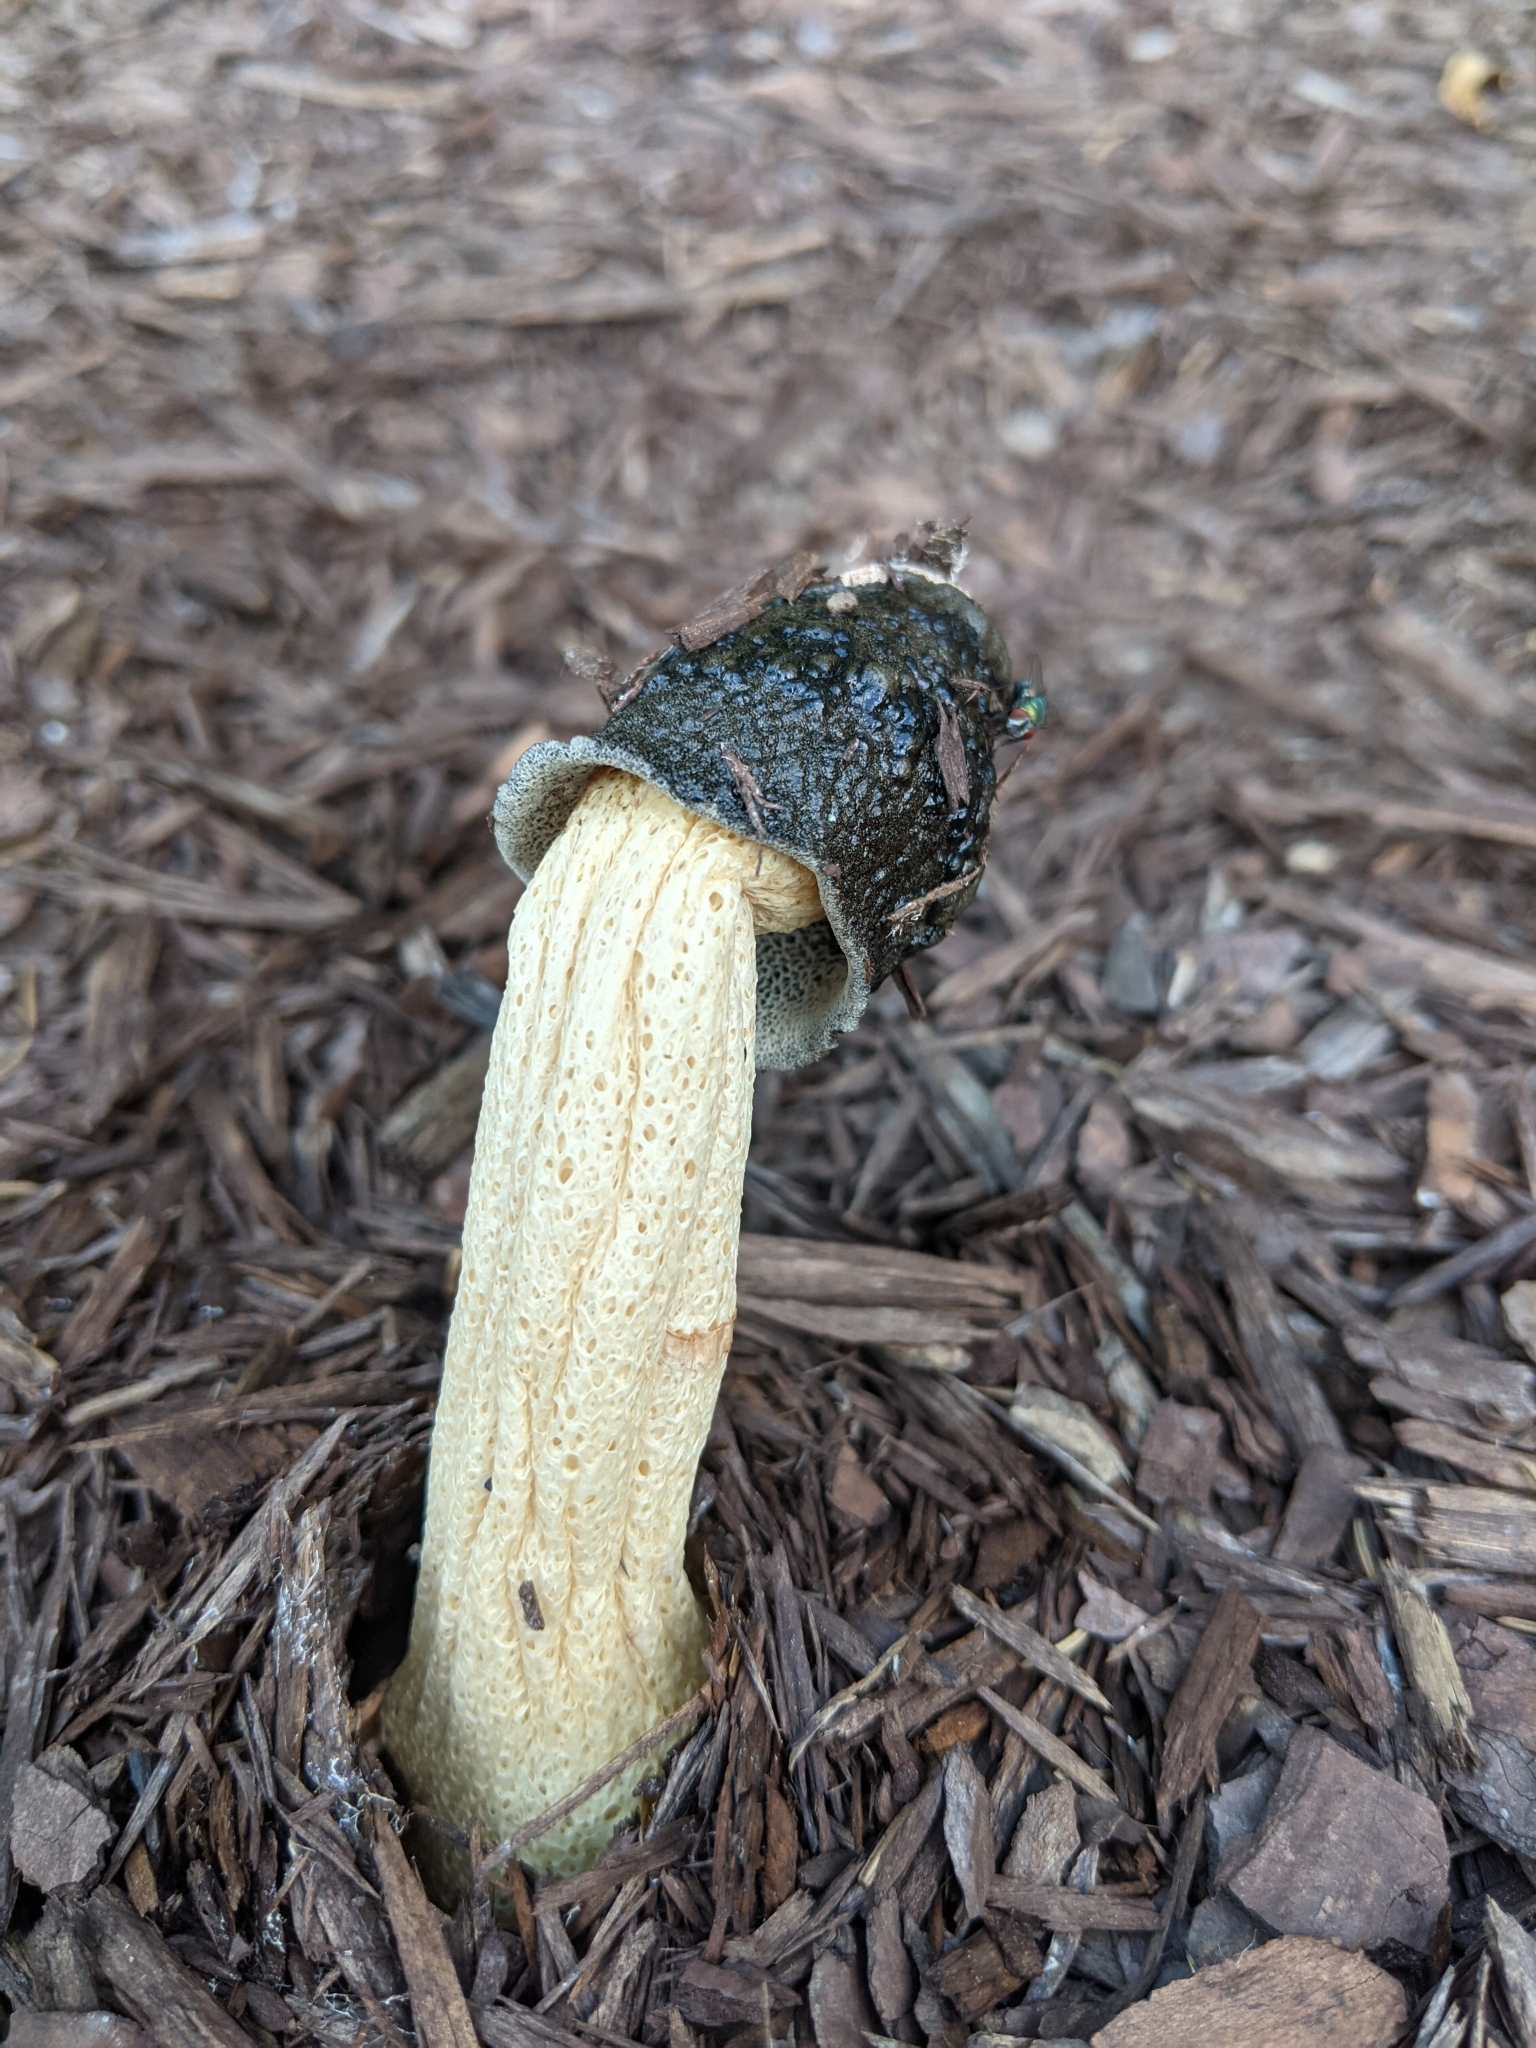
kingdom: Fungi
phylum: Basidiomycota
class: Agaricomycetes
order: Phallales
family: Phallaceae
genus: Phallus
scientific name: Phallus ravenelii
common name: Ravenel's stinkhorn
